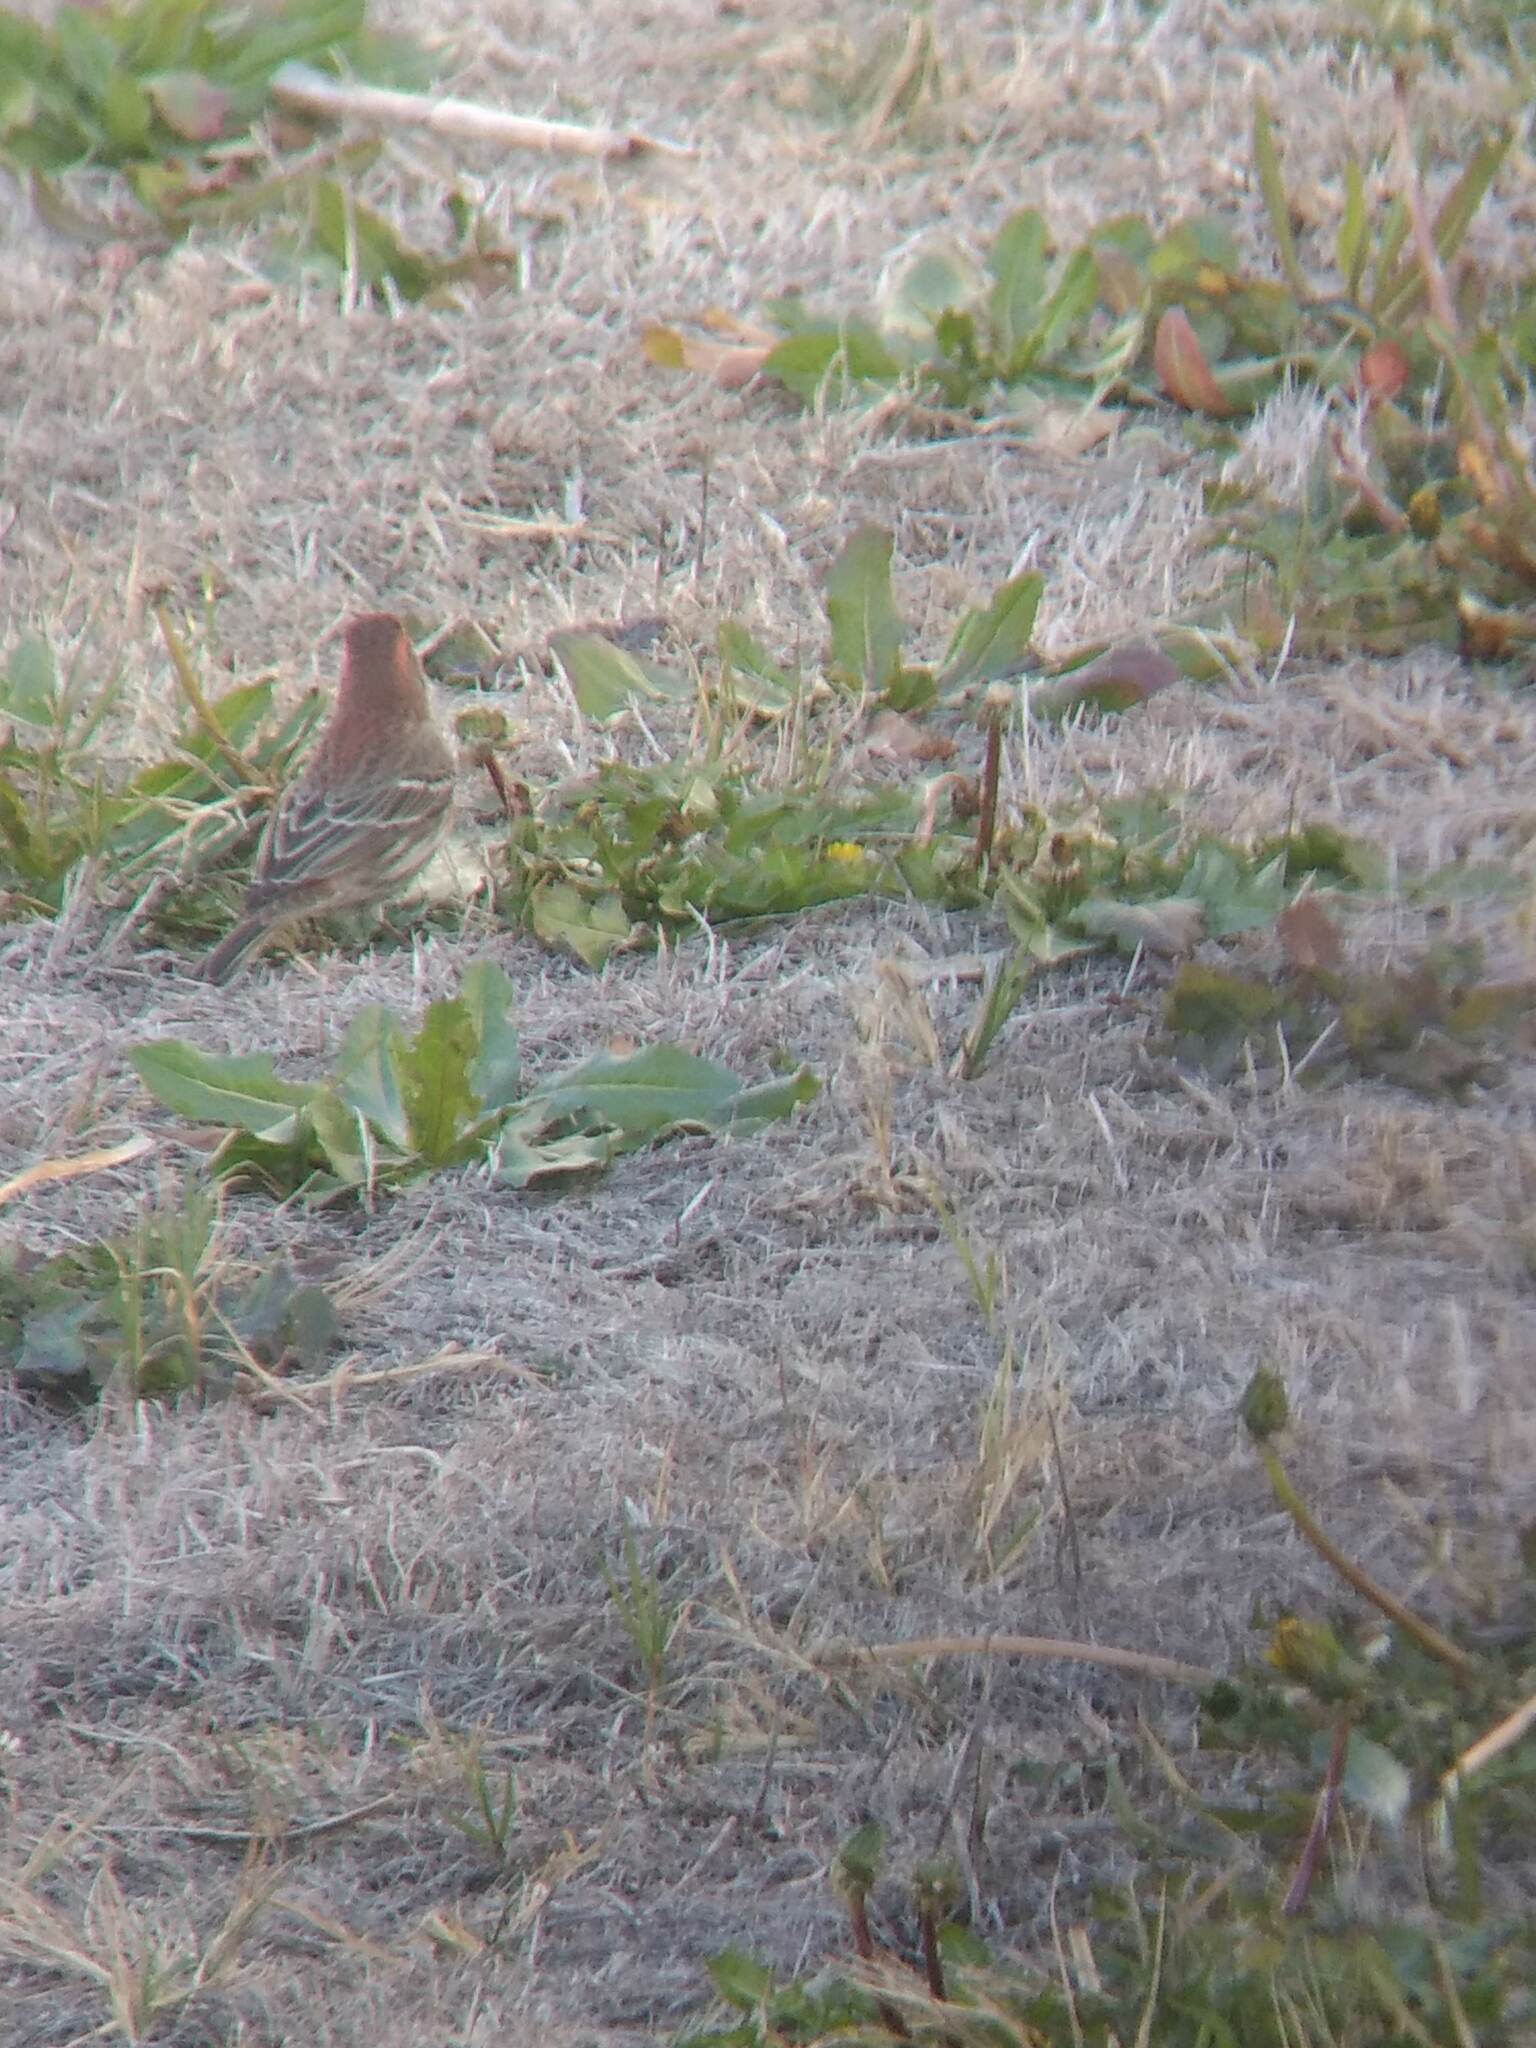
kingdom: Animalia
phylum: Chordata
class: Aves
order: Passeriformes
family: Fringillidae
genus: Haemorhous
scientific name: Haemorhous mexicanus
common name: House finch
